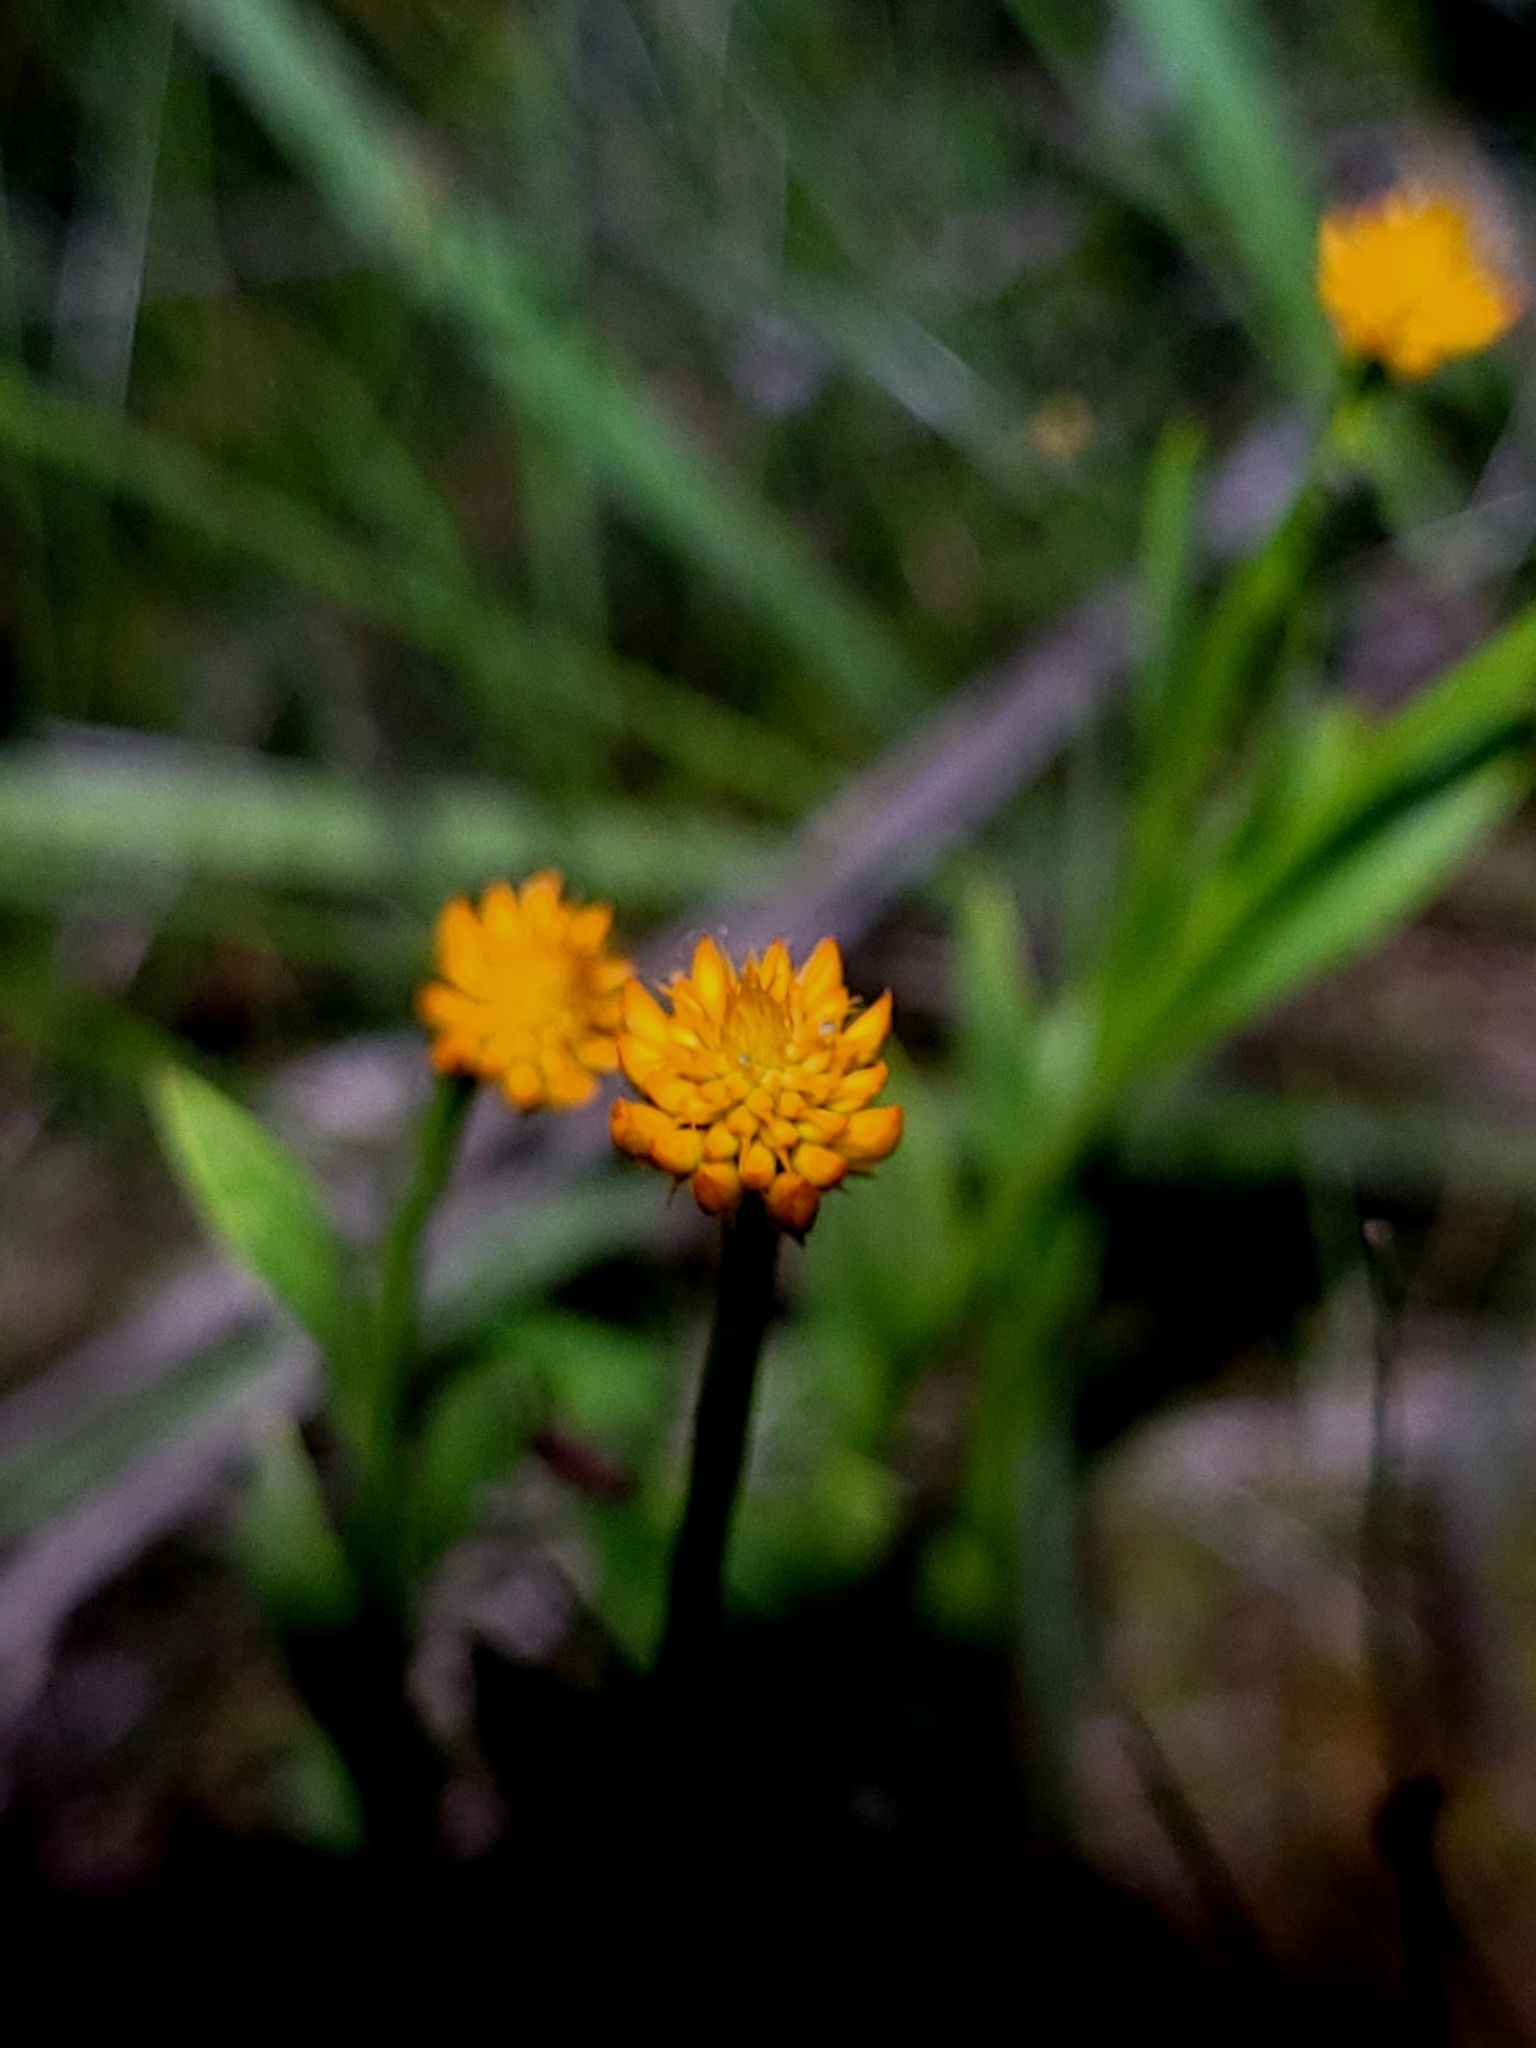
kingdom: Plantae
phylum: Tracheophyta
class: Magnoliopsida
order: Fabales
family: Polygalaceae
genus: Polygala
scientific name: Polygala lutea
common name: Orange milkwort
